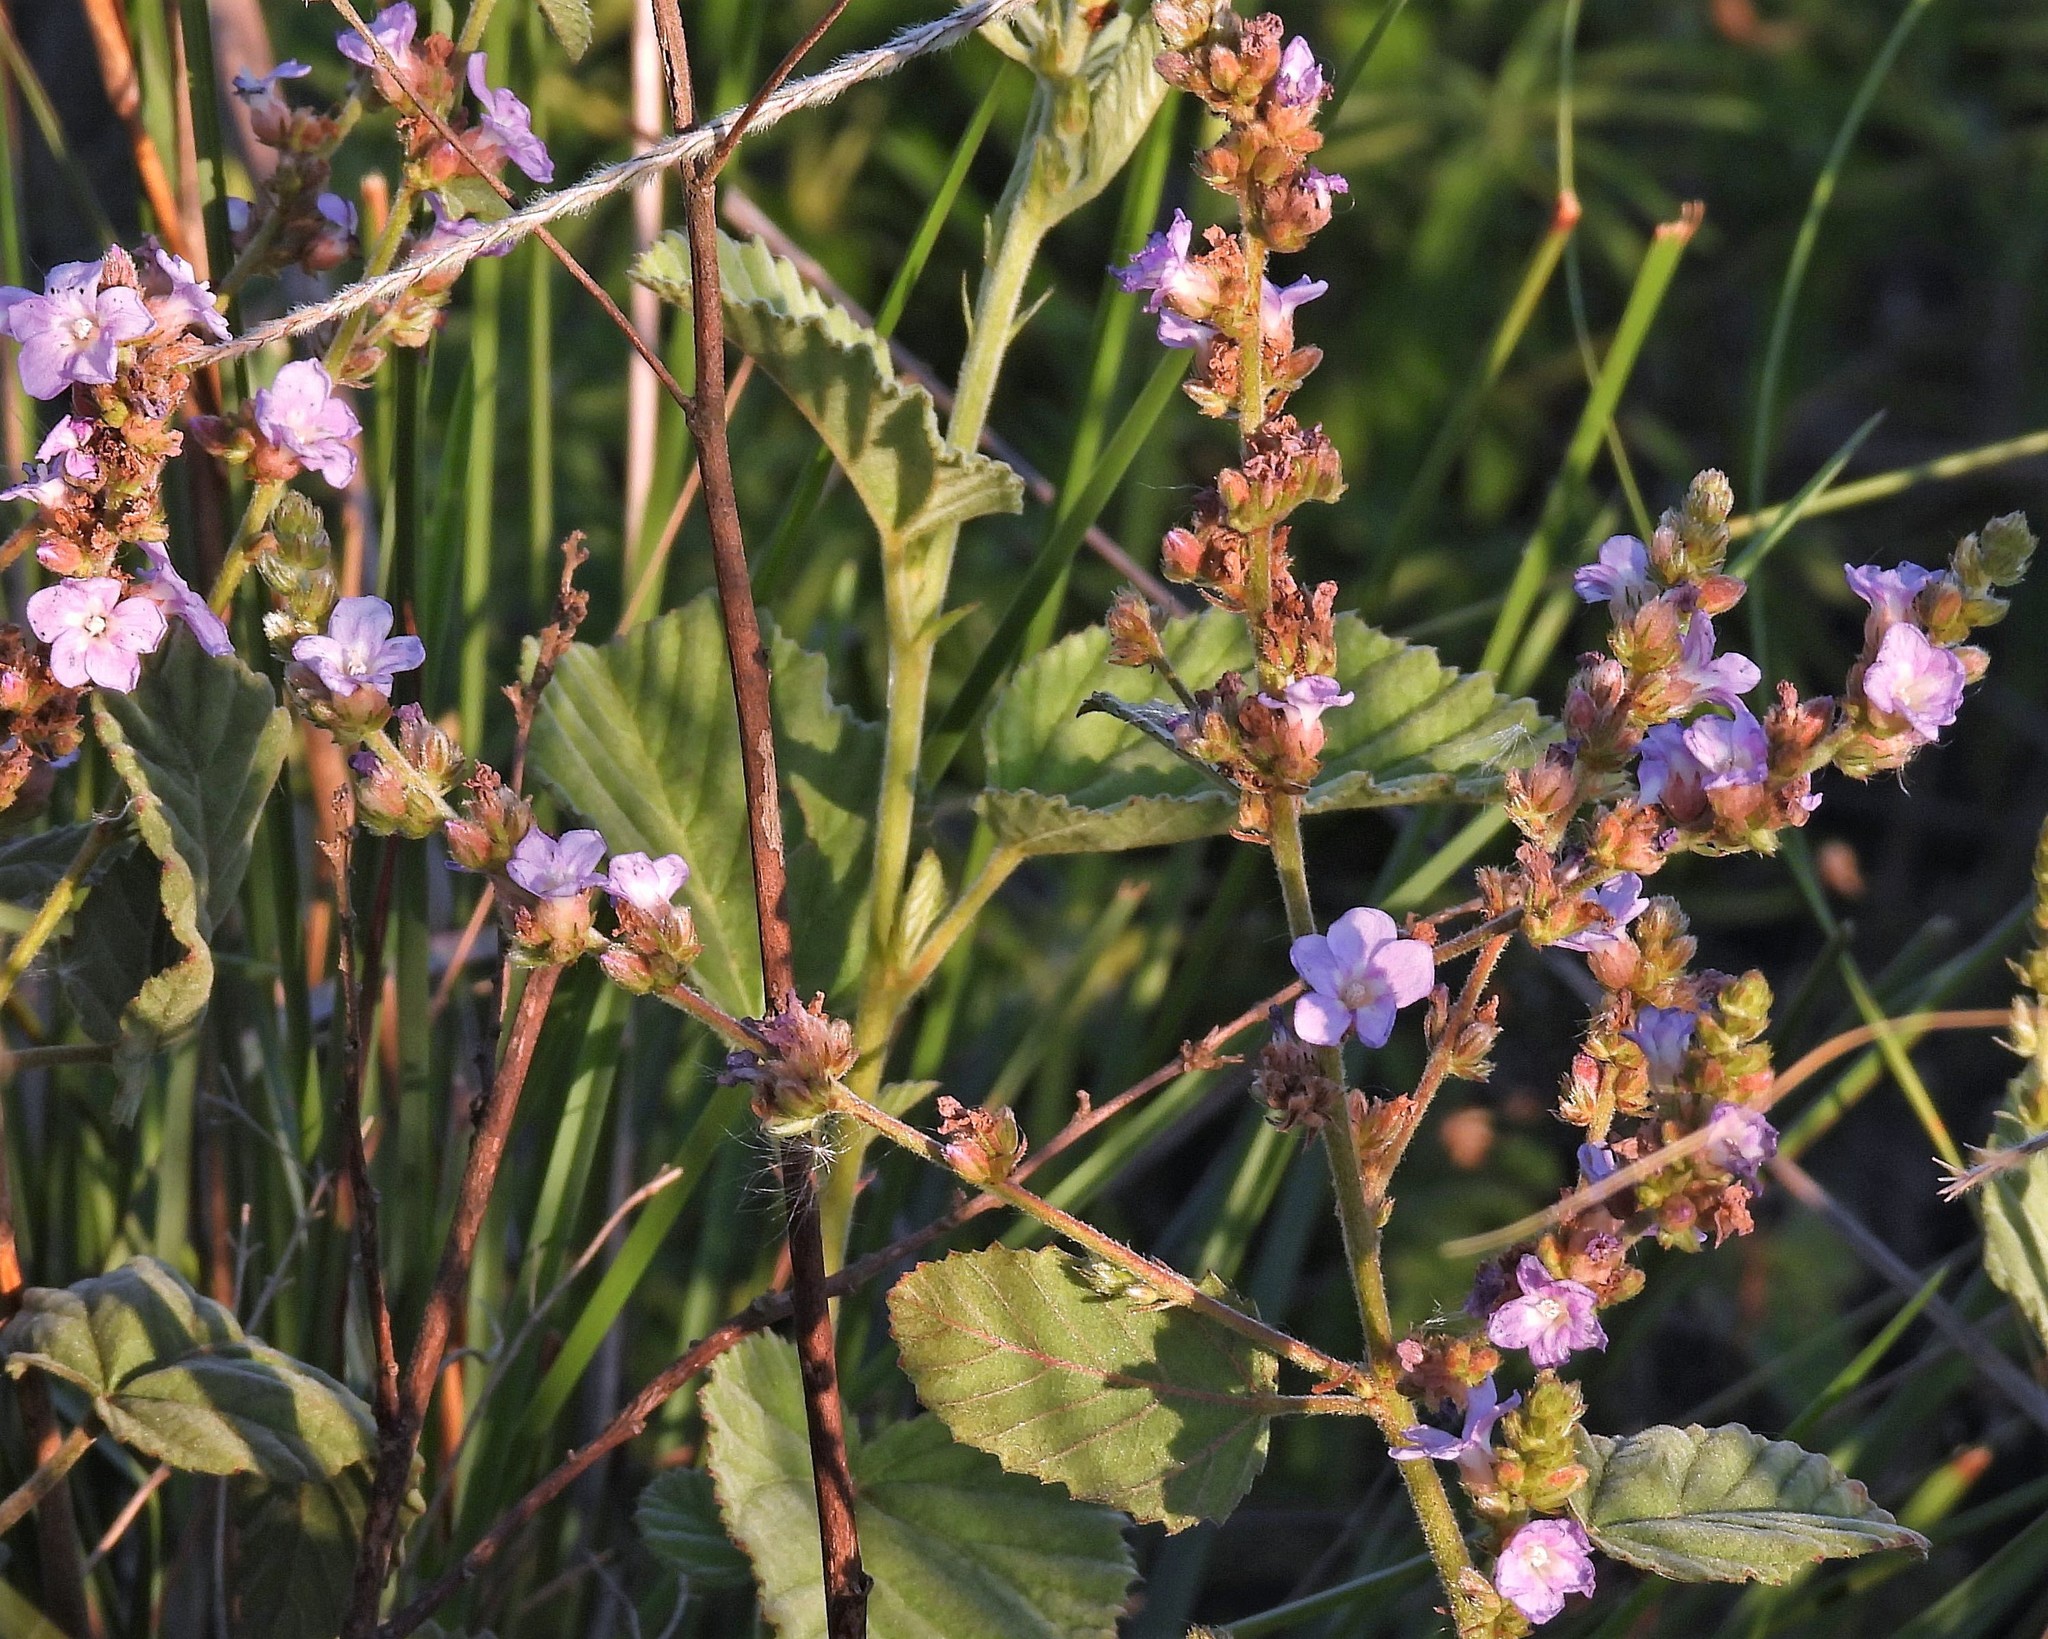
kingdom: Plantae
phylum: Tracheophyta
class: Magnoliopsida
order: Malvales
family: Malvaceae
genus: Melochia
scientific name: Melochia spicata
